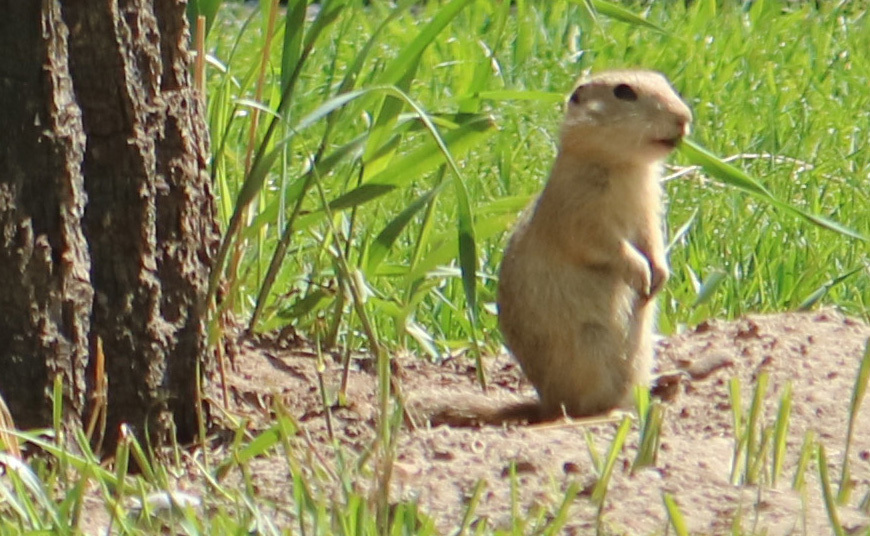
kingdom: Animalia
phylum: Chordata
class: Mammalia
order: Rodentia
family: Sciuridae
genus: Urocitellus
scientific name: Urocitellus richardsonii
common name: Richardson's ground squirrel
